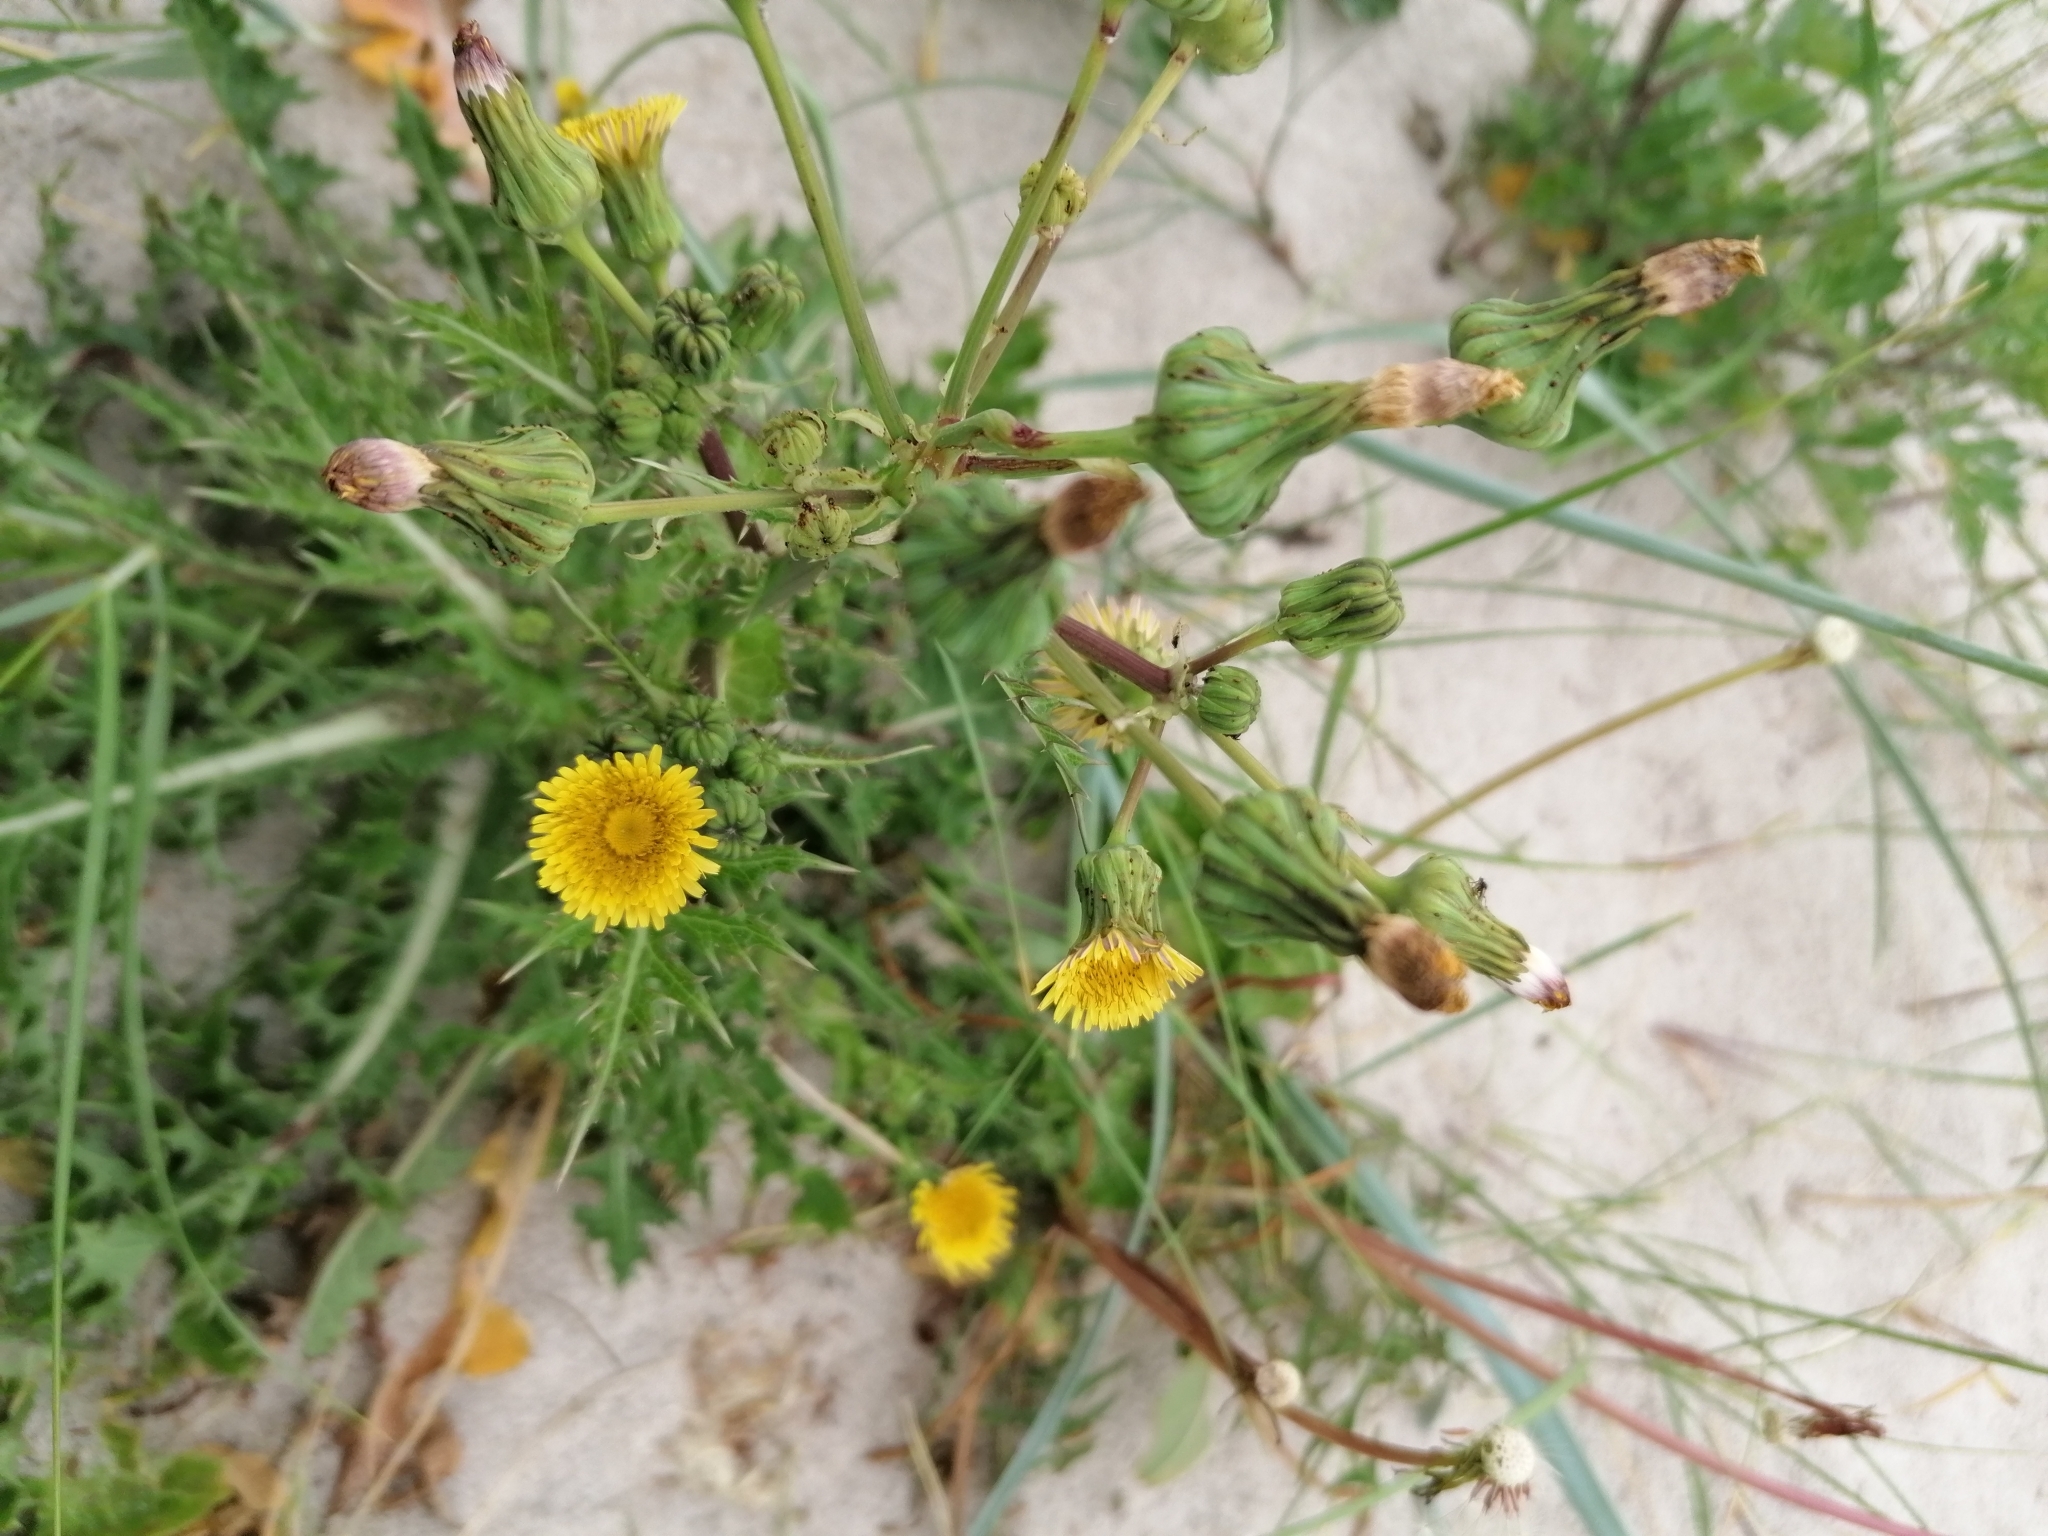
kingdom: Plantae
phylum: Tracheophyta
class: Magnoliopsida
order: Asterales
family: Asteraceae
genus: Sonchus
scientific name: Sonchus asper
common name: Prickly sow-thistle
